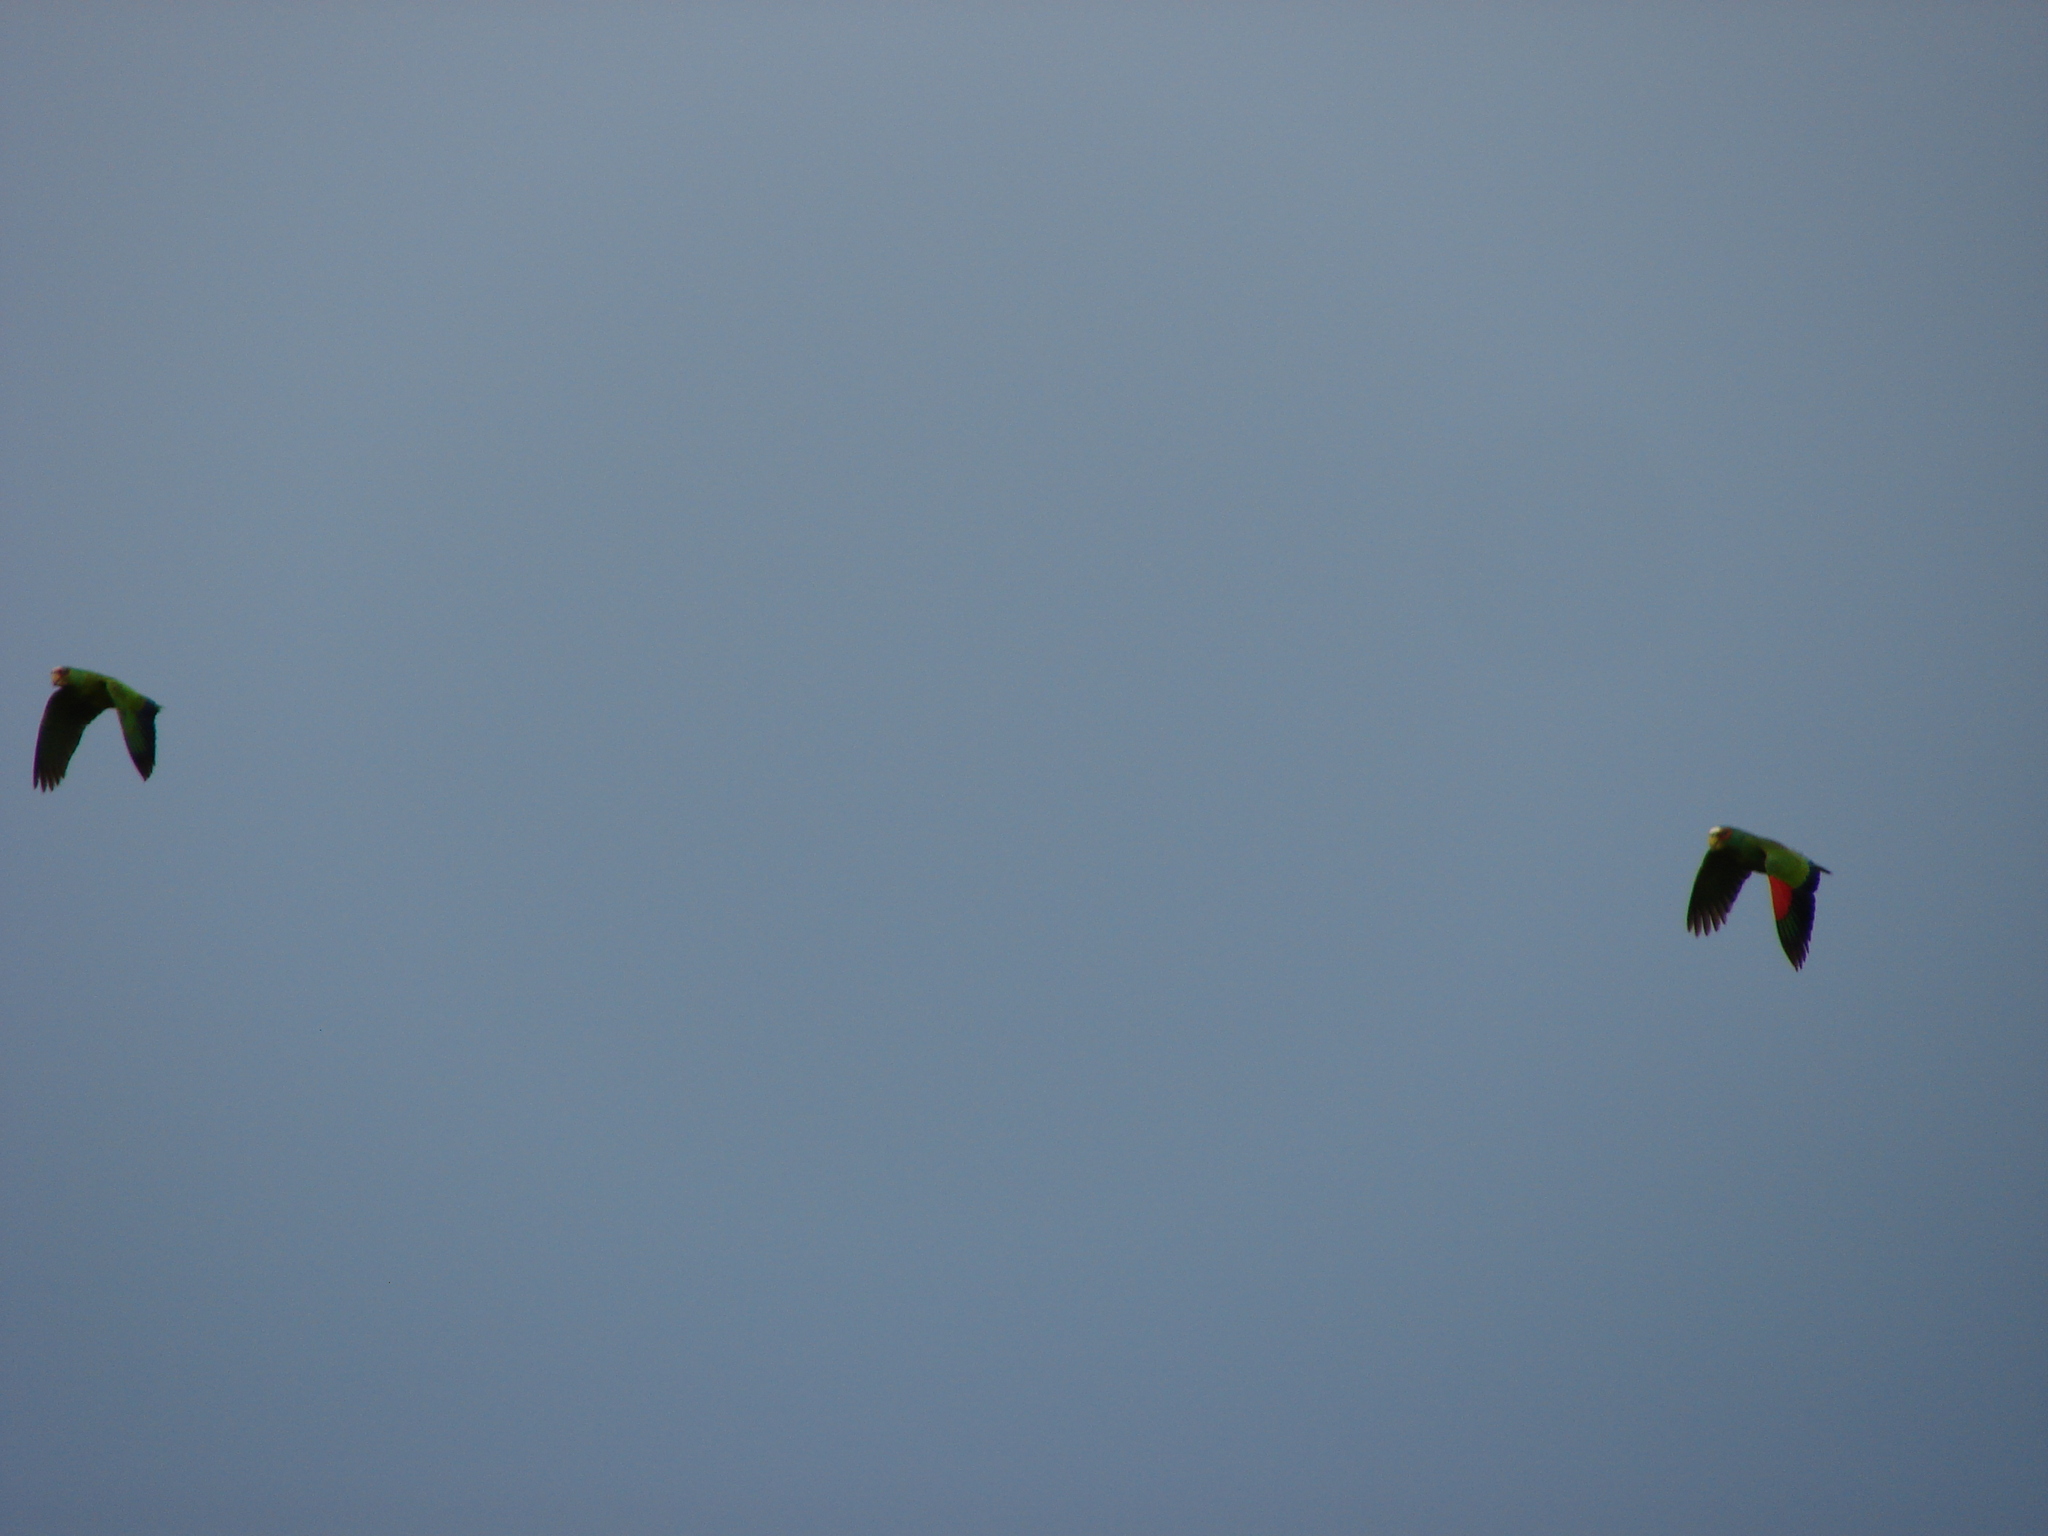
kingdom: Animalia
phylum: Chordata
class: Aves
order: Psittaciformes
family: Psittacidae
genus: Amazona
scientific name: Amazona albifrons
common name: White-fronted amazon
